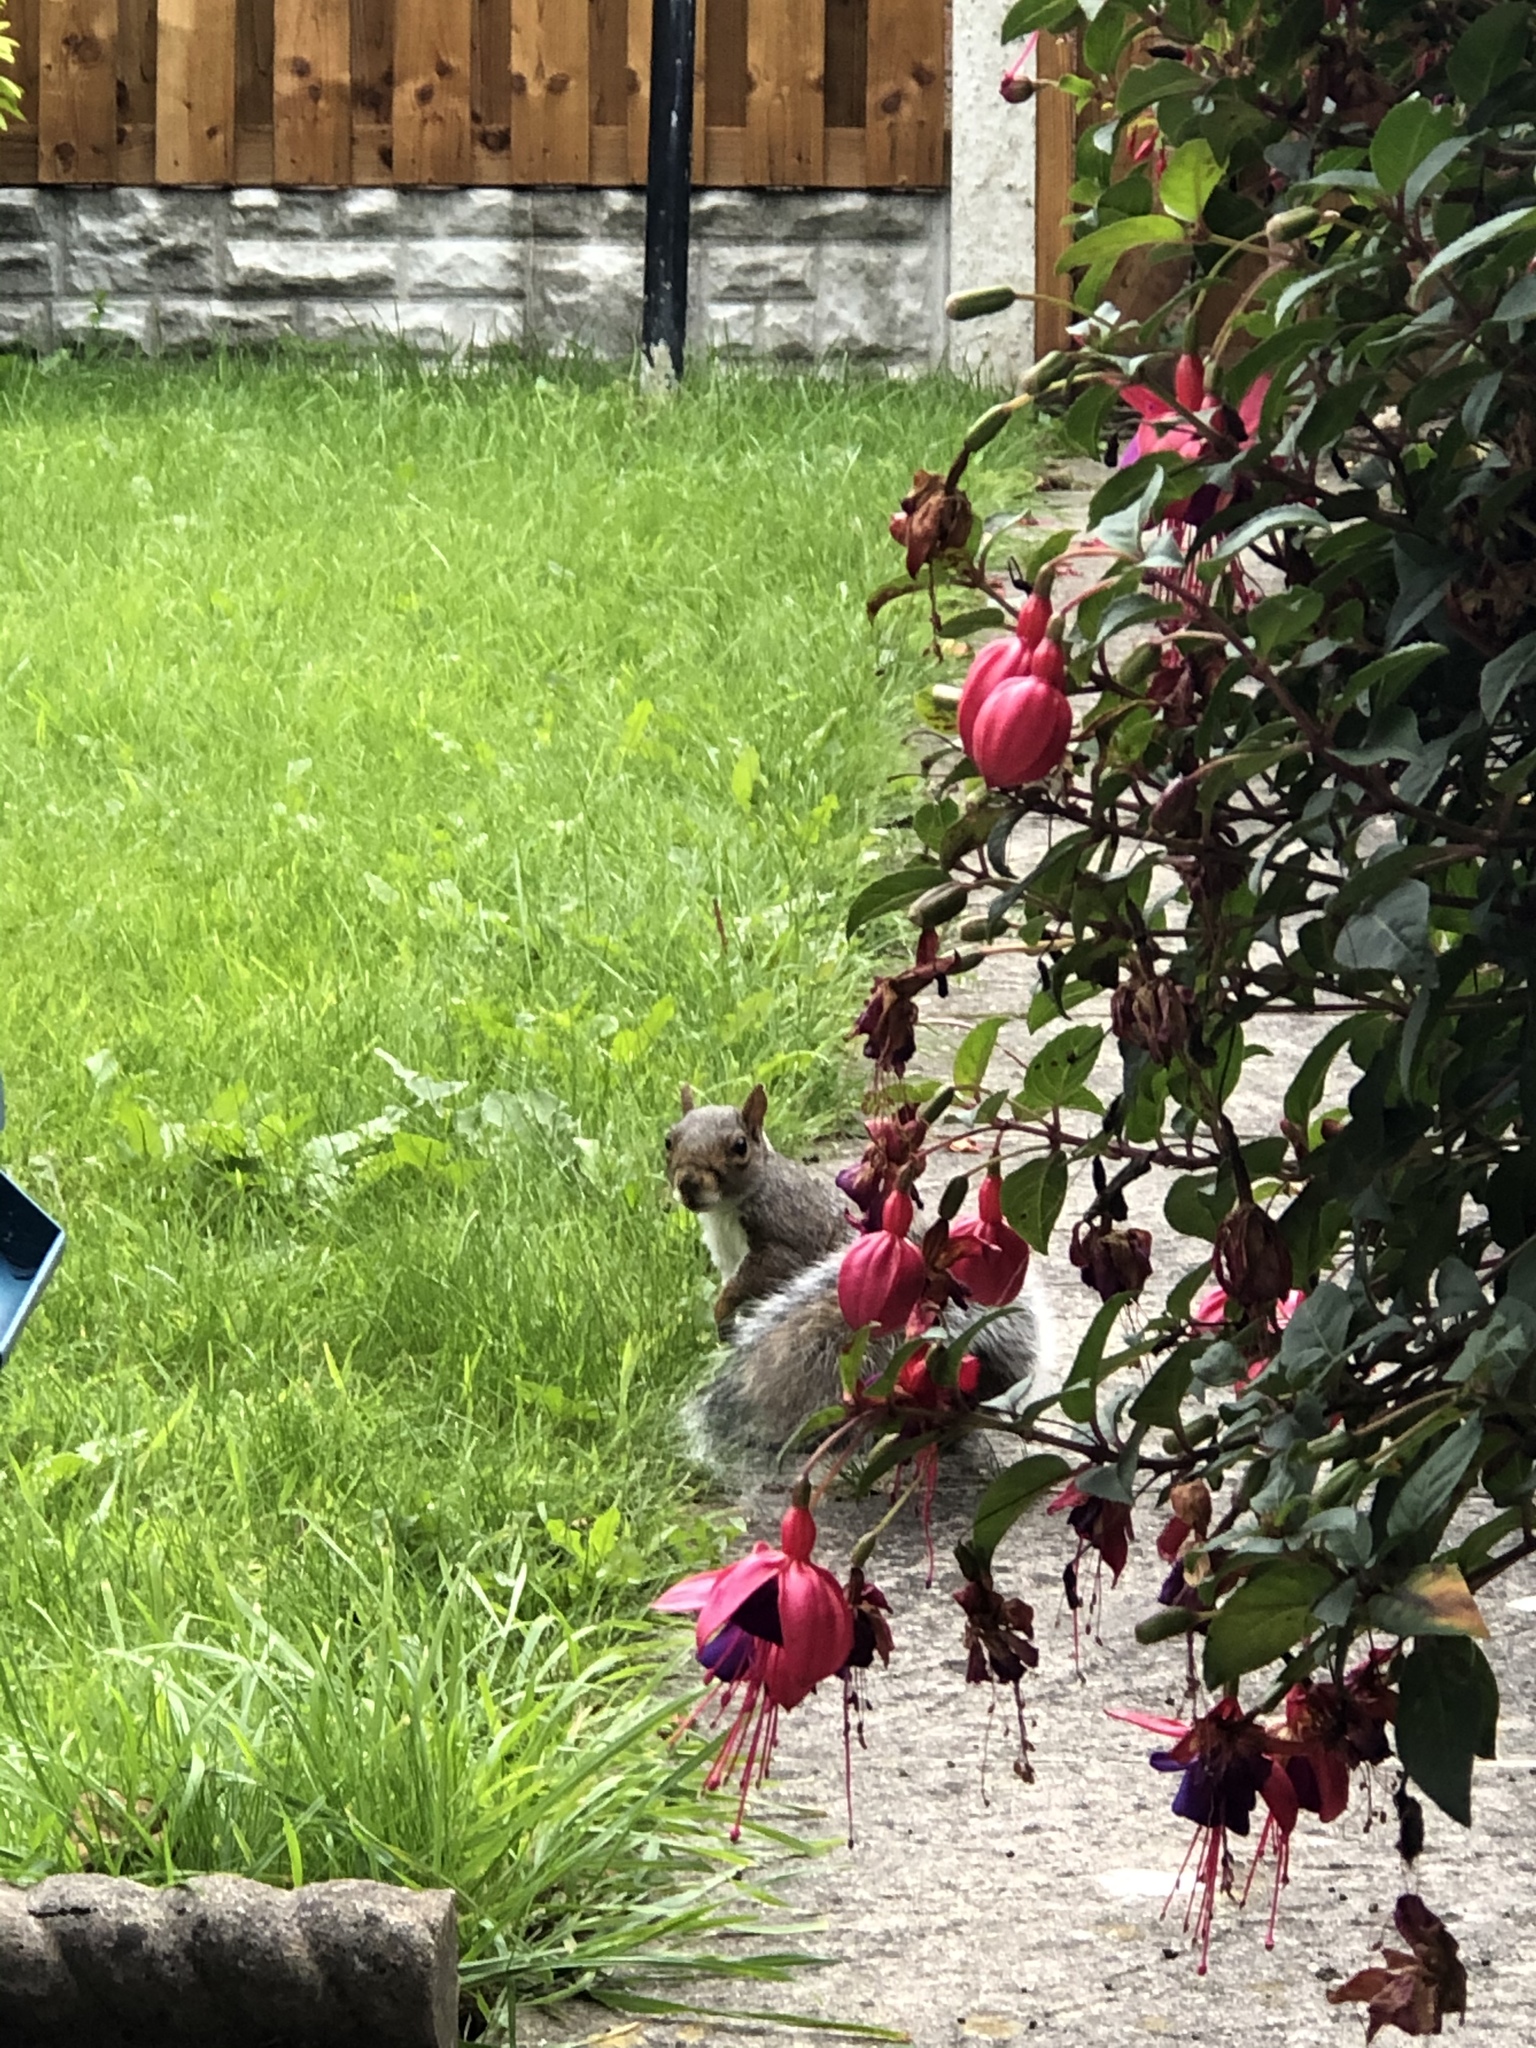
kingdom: Animalia
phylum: Chordata
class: Mammalia
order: Rodentia
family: Sciuridae
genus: Sciurus
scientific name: Sciurus carolinensis
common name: Eastern gray squirrel
